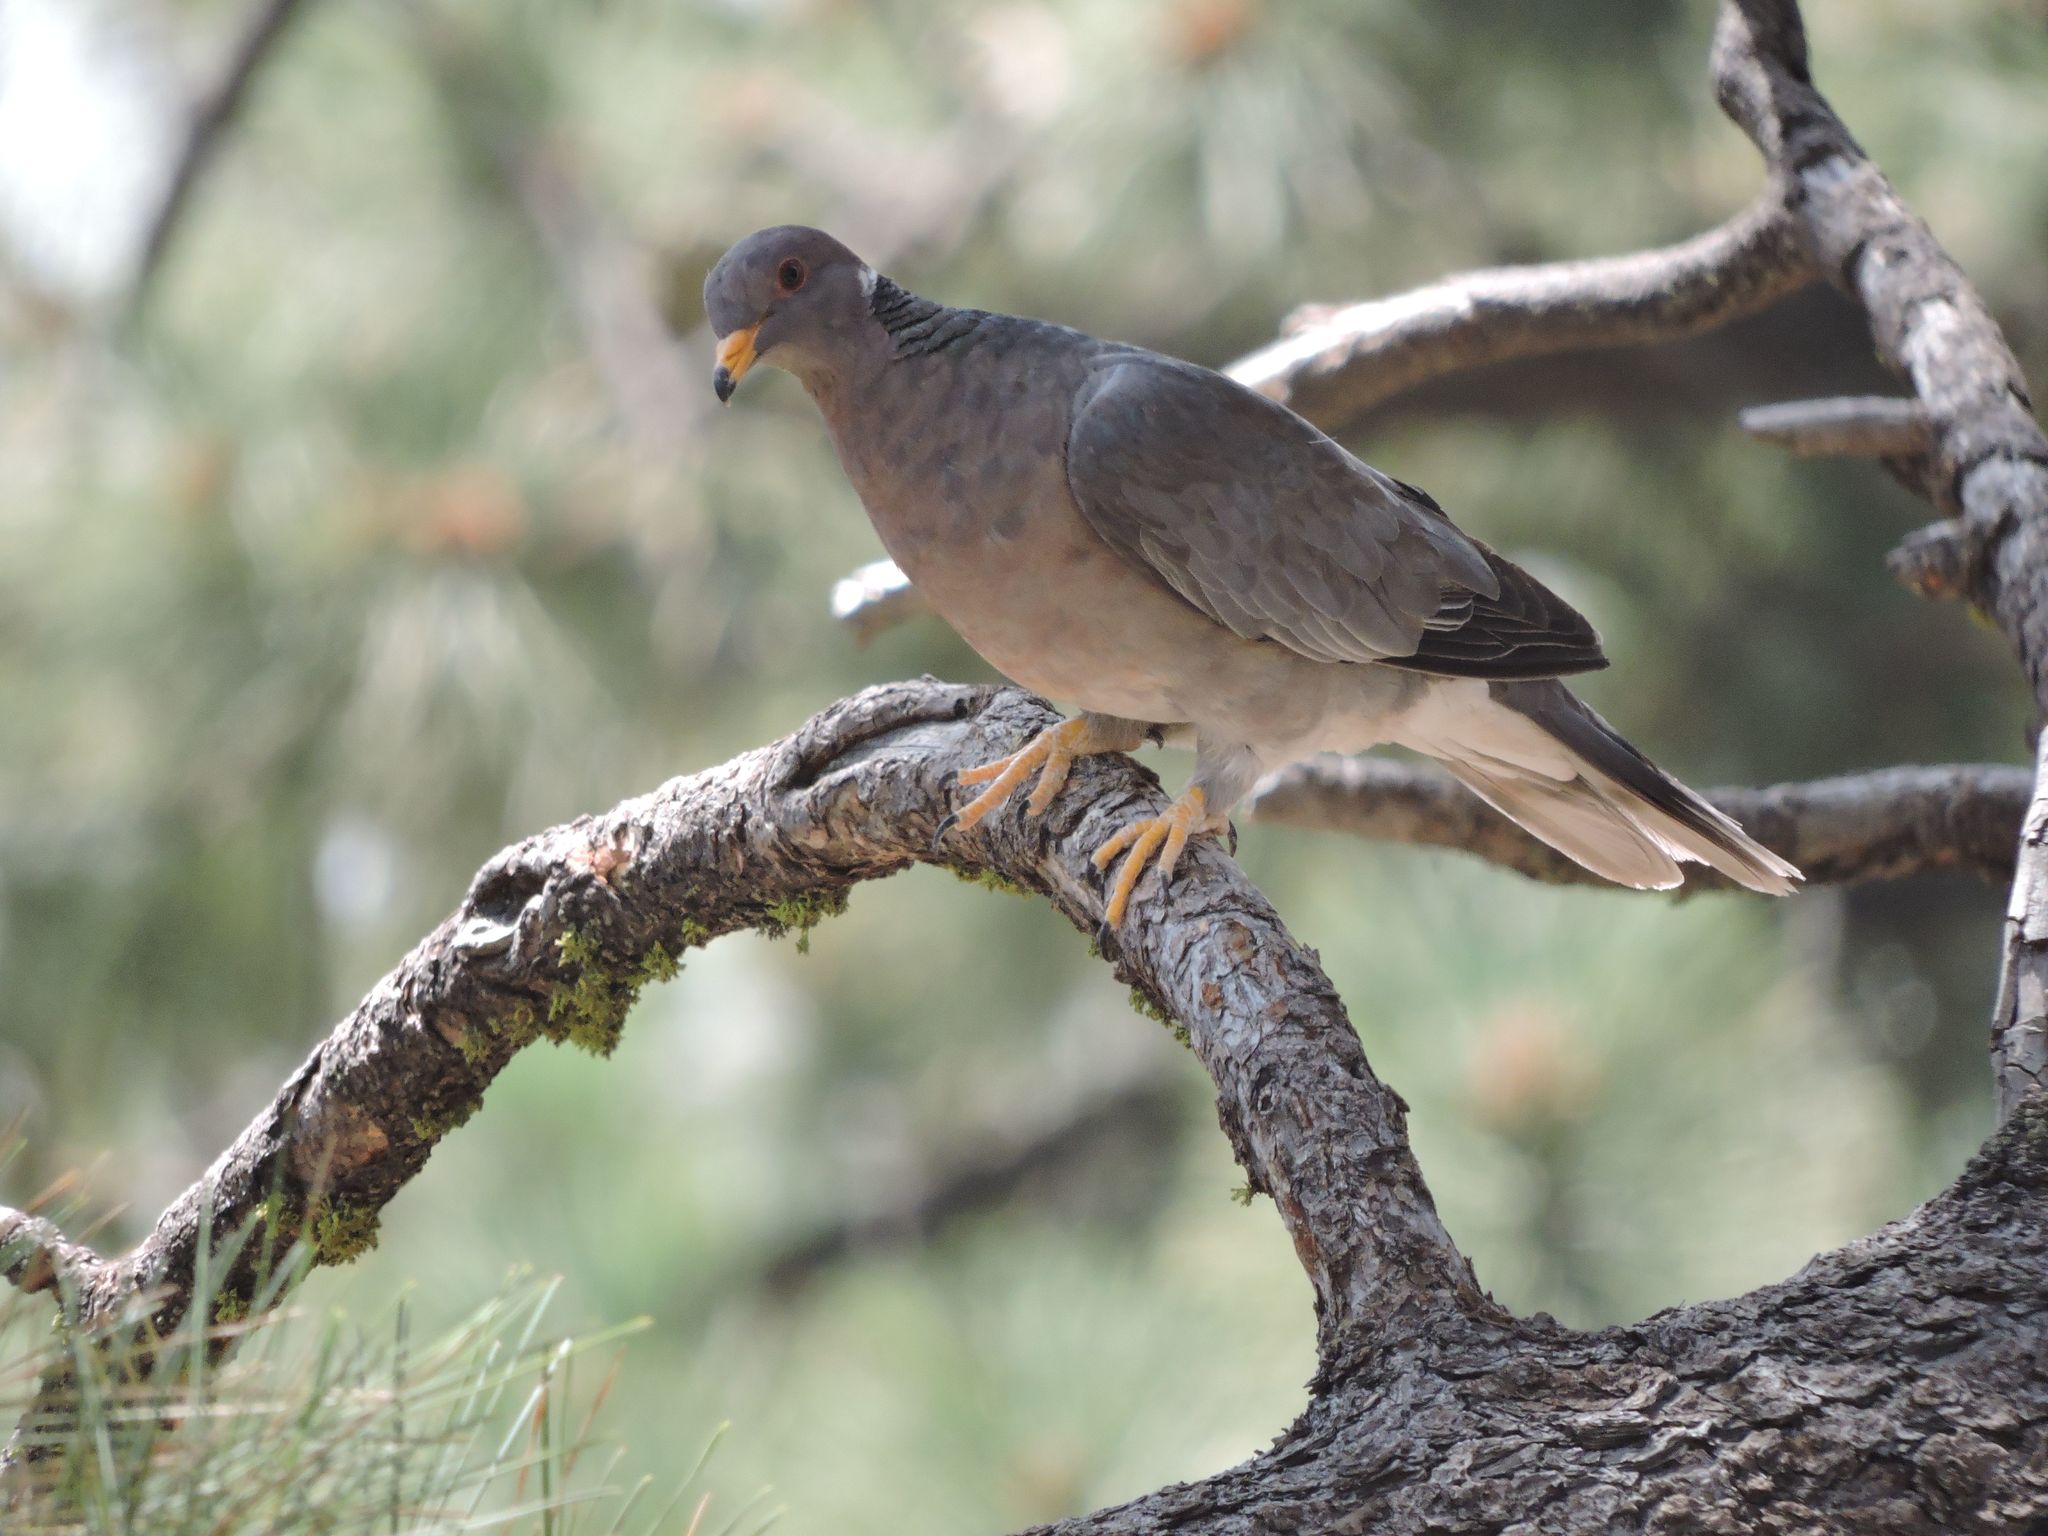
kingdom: Animalia
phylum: Chordata
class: Aves
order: Columbiformes
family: Columbidae
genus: Patagioenas
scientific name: Patagioenas fasciata
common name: Band-tailed pigeon
